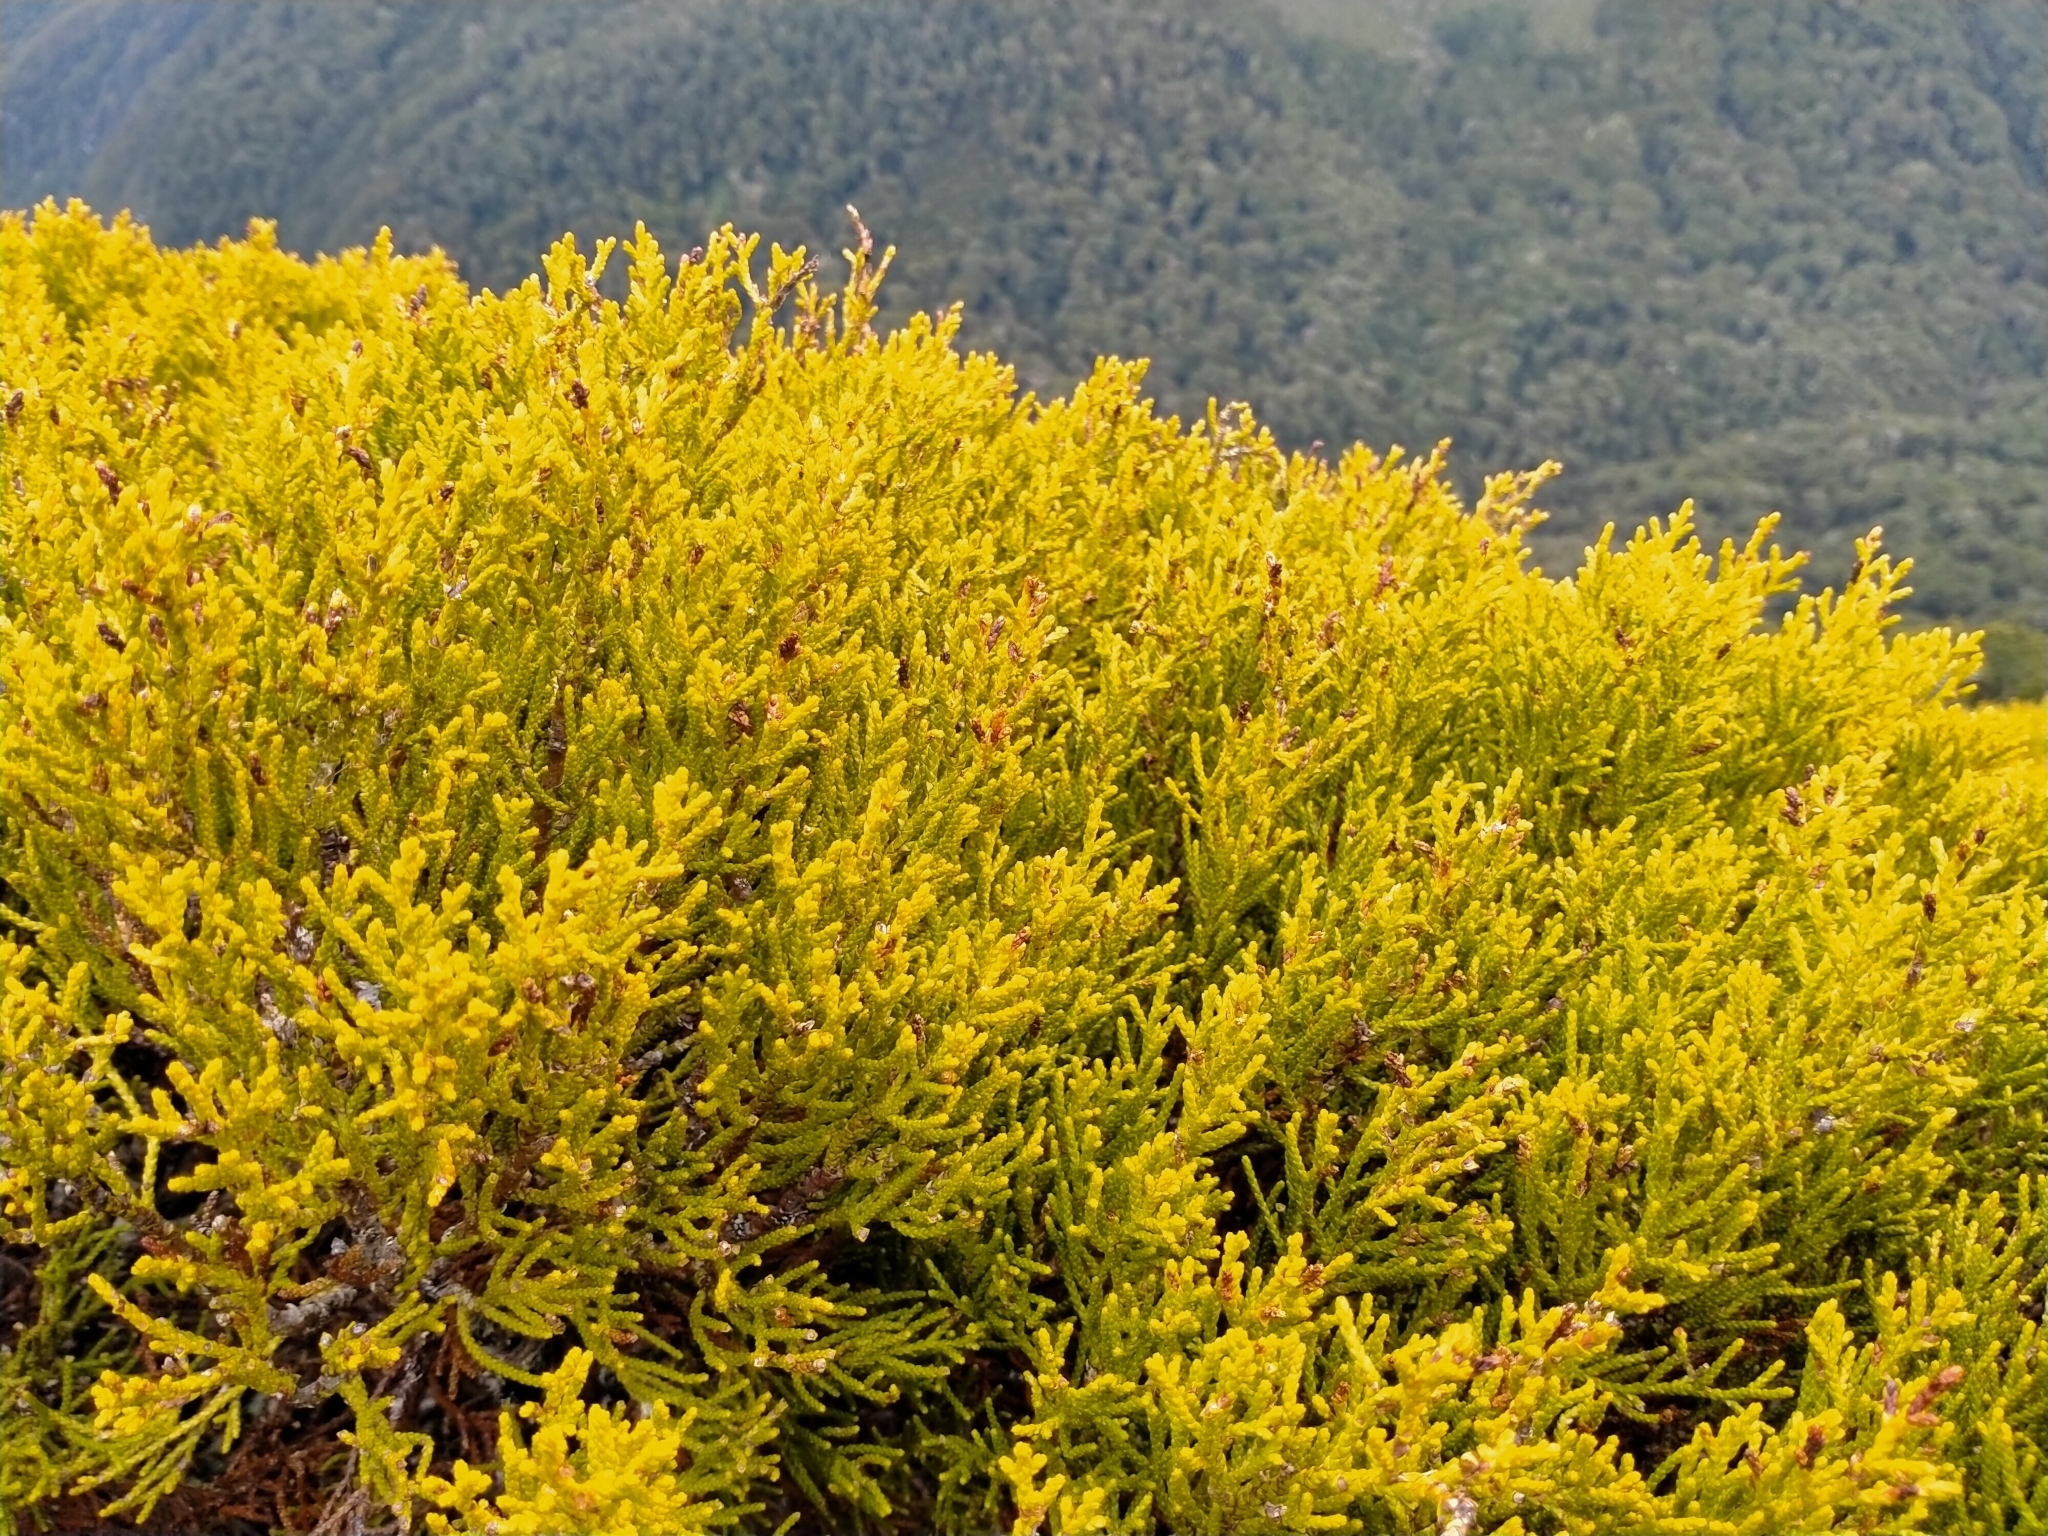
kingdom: Plantae
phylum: Tracheophyta
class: Pinopsida
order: Pinales
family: Podocarpaceae
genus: Halocarpus
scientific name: Halocarpus bidwillii
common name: Bog pine
